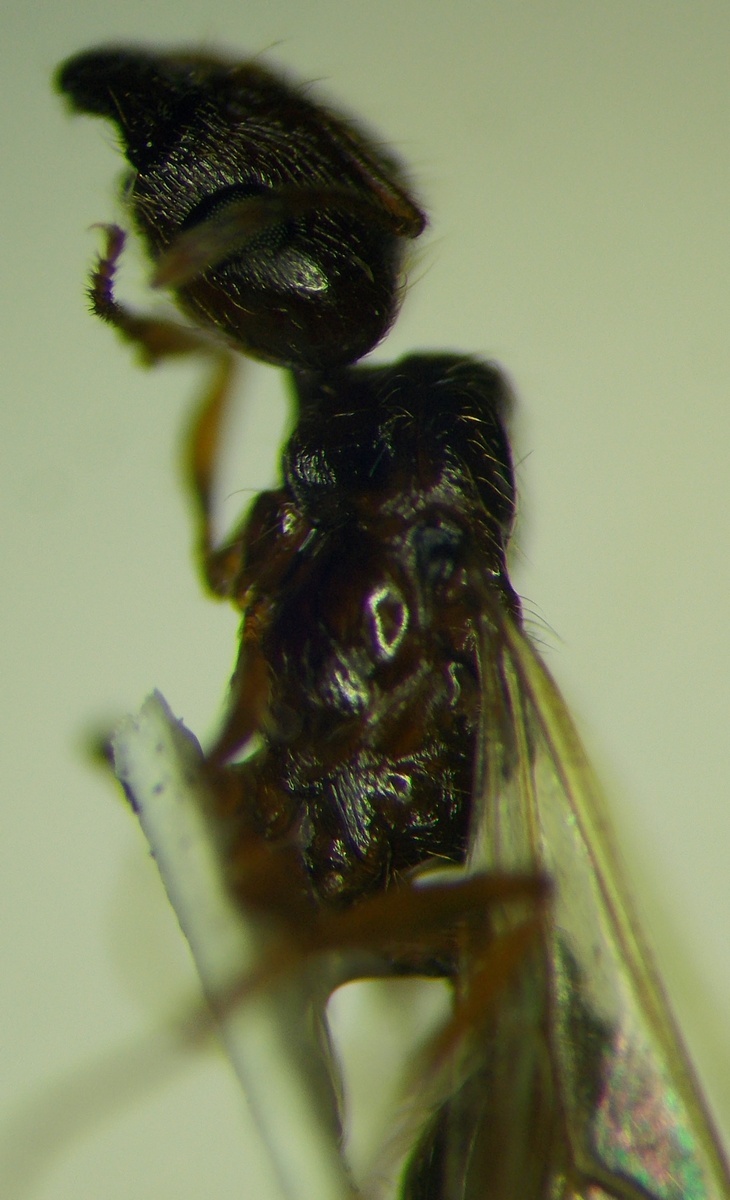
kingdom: Animalia
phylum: Arthropoda
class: Insecta
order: Hymenoptera
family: Formicidae
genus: Pheidole
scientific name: Pheidole pallidula
